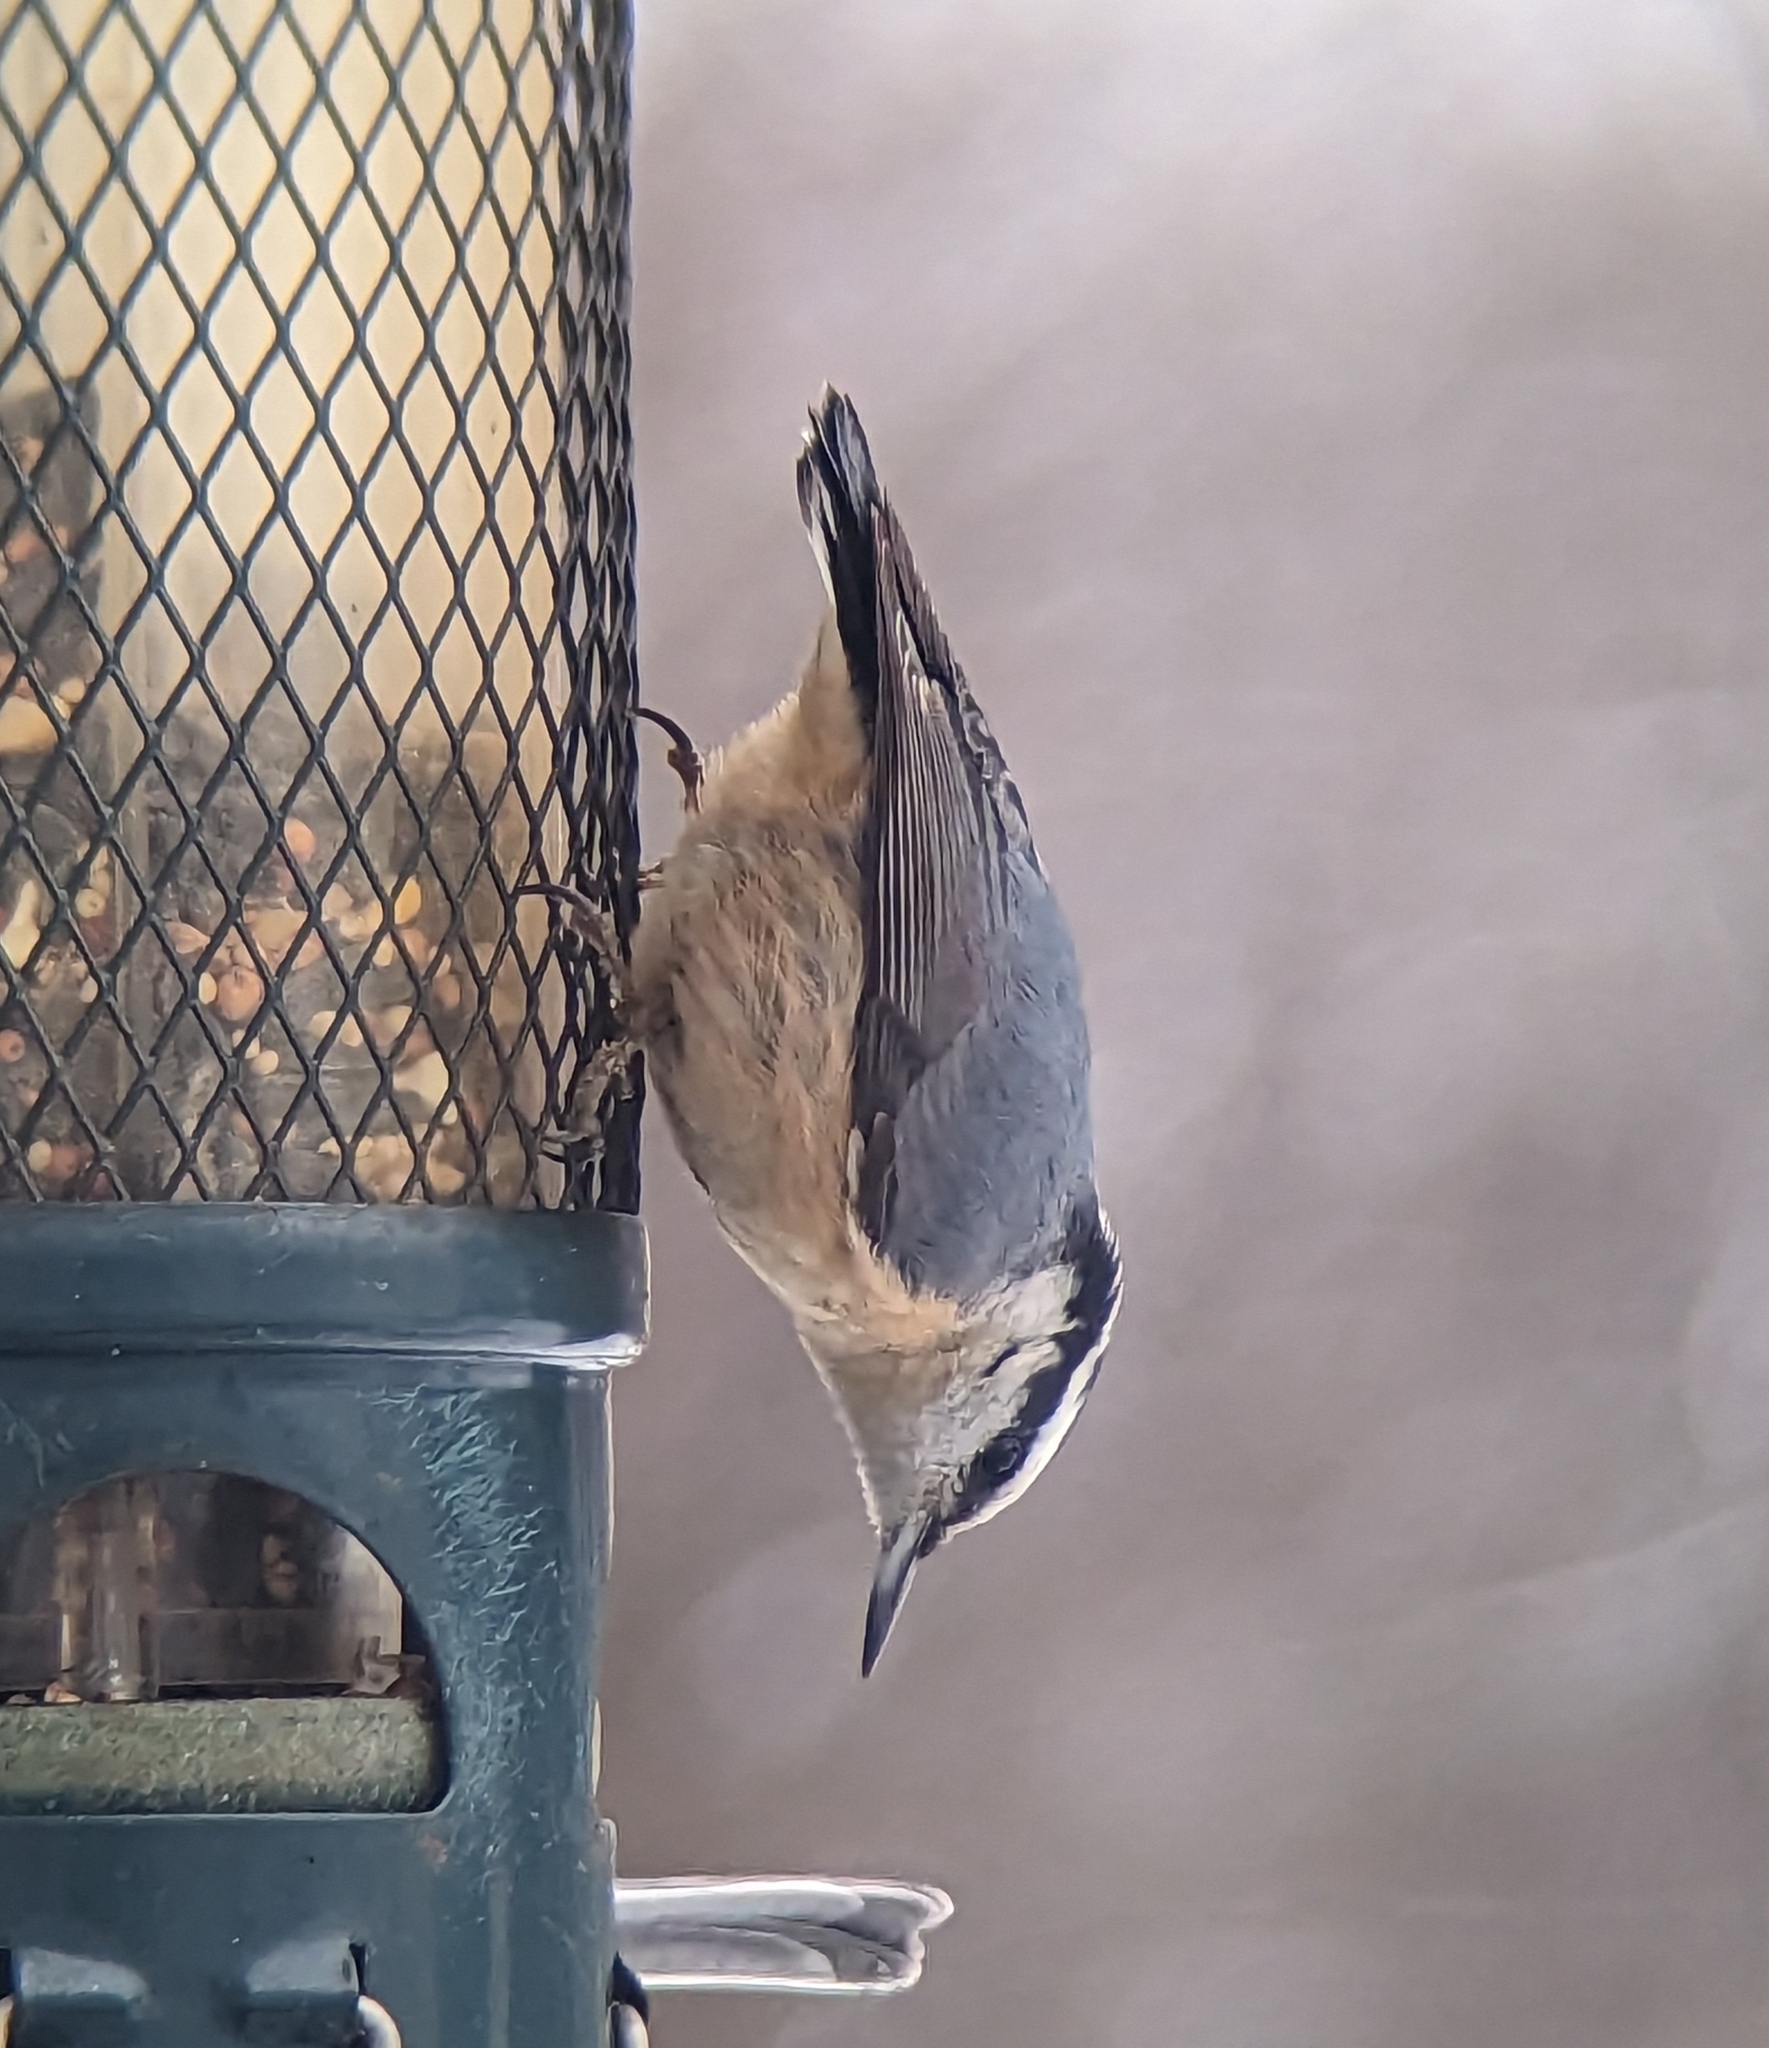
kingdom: Animalia
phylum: Chordata
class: Aves
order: Passeriformes
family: Sittidae
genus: Sitta
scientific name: Sitta canadensis
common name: Red-breasted nuthatch
